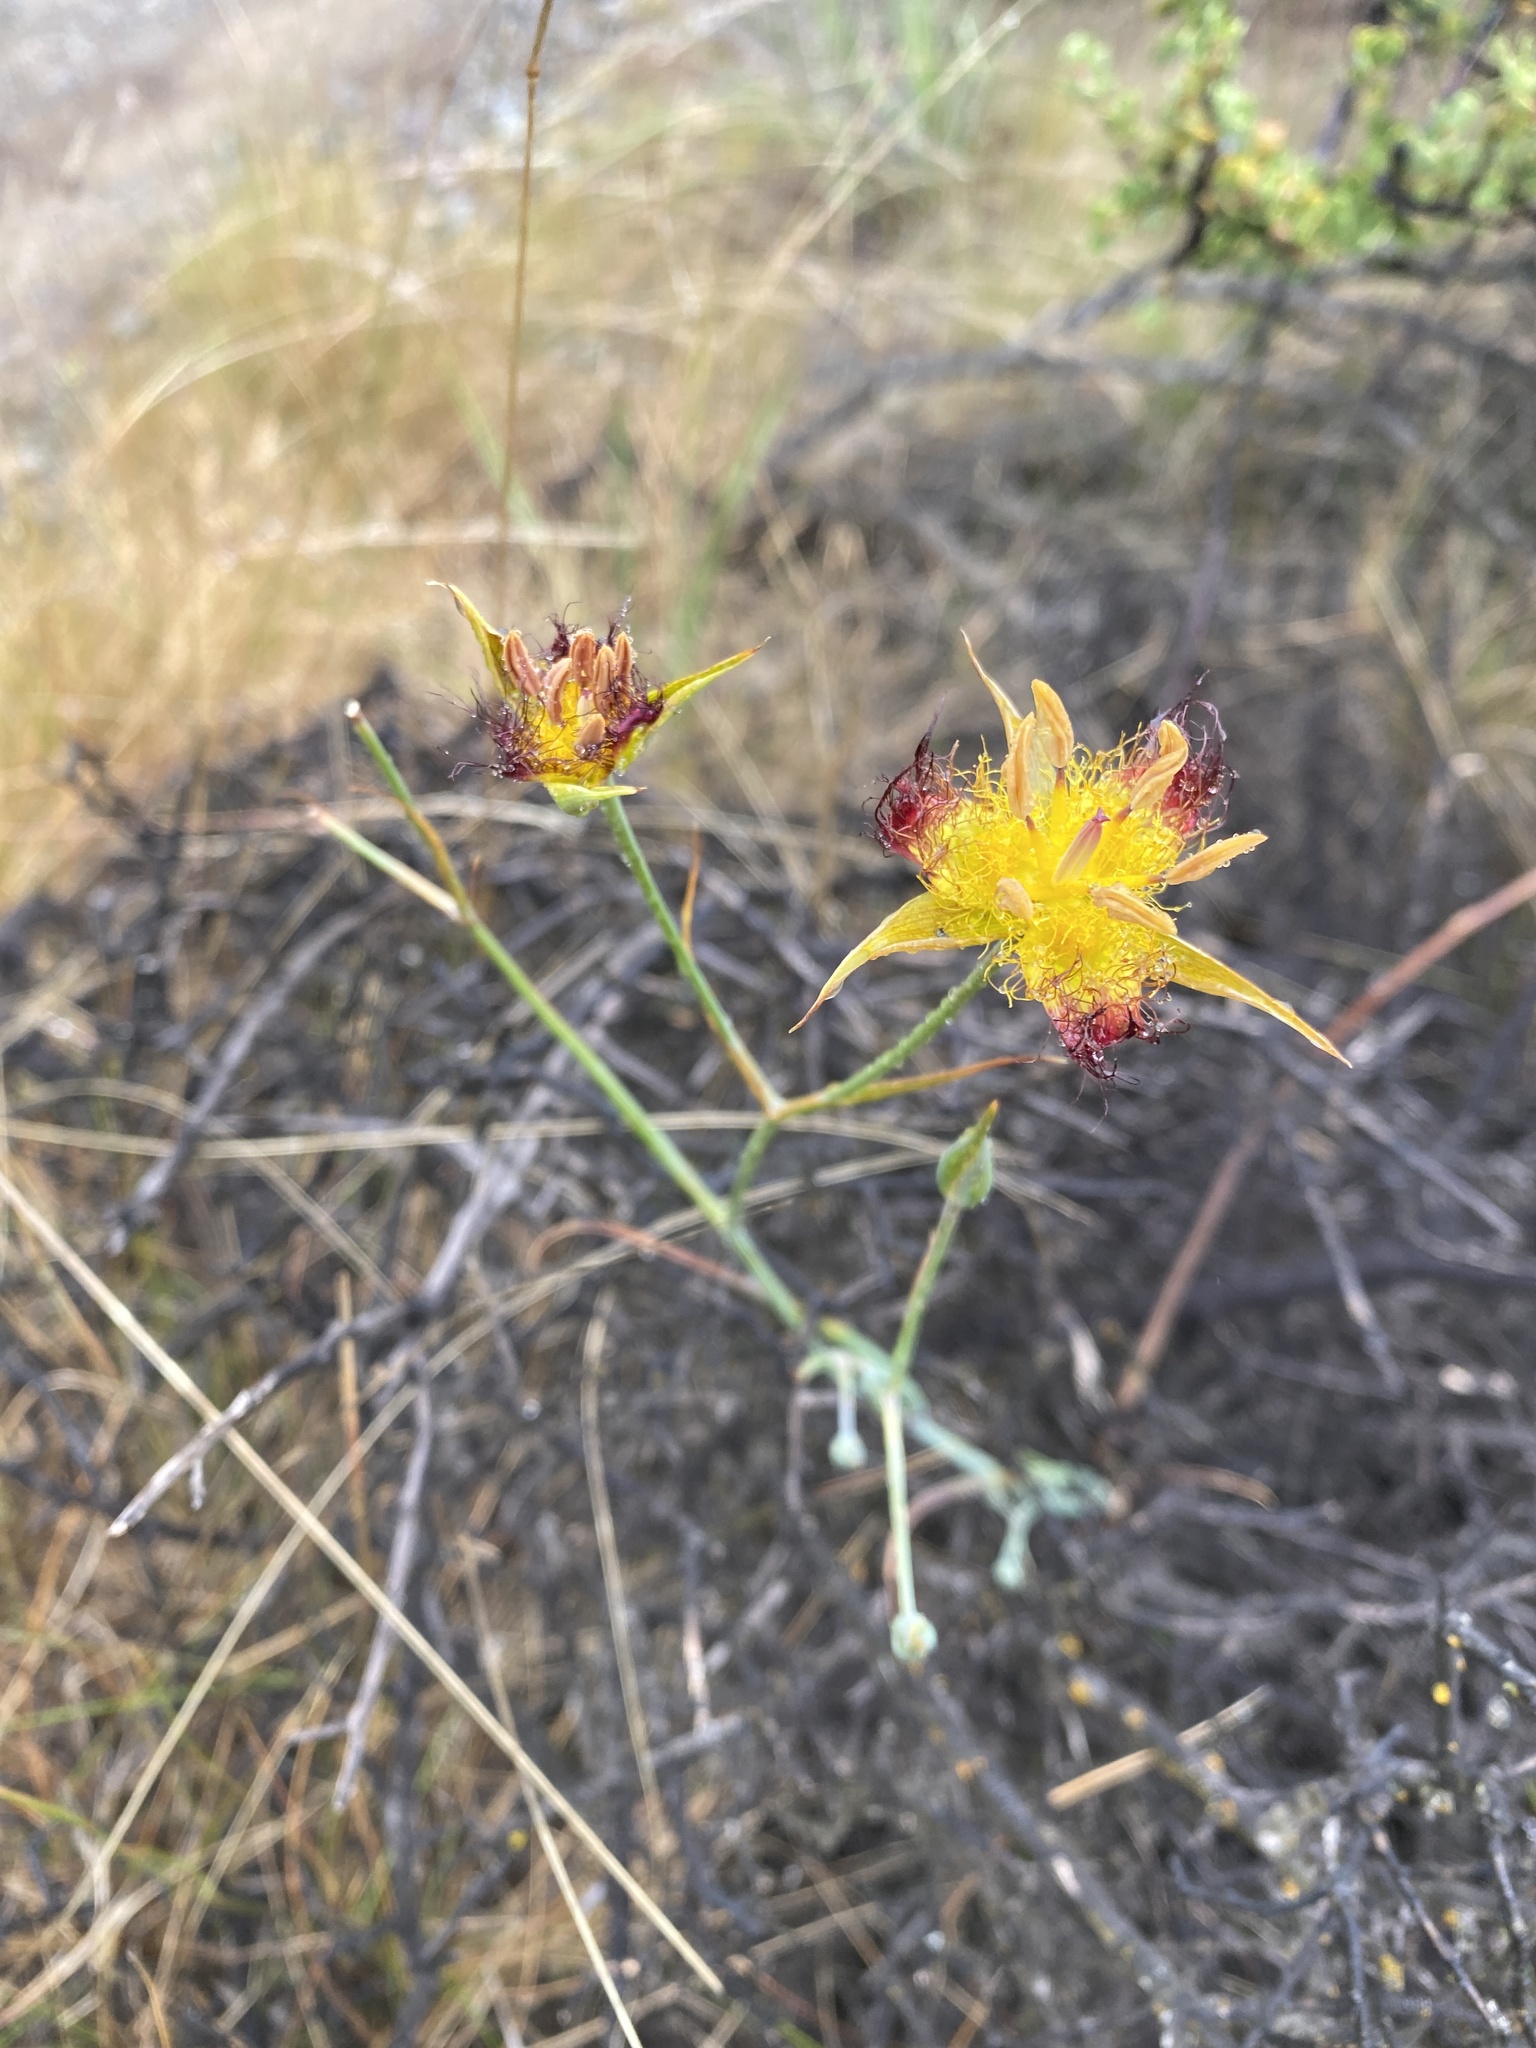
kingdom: Plantae
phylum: Tracheophyta
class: Liliopsida
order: Liliales
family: Liliaceae
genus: Calochortus
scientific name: Calochortus obispoensis
